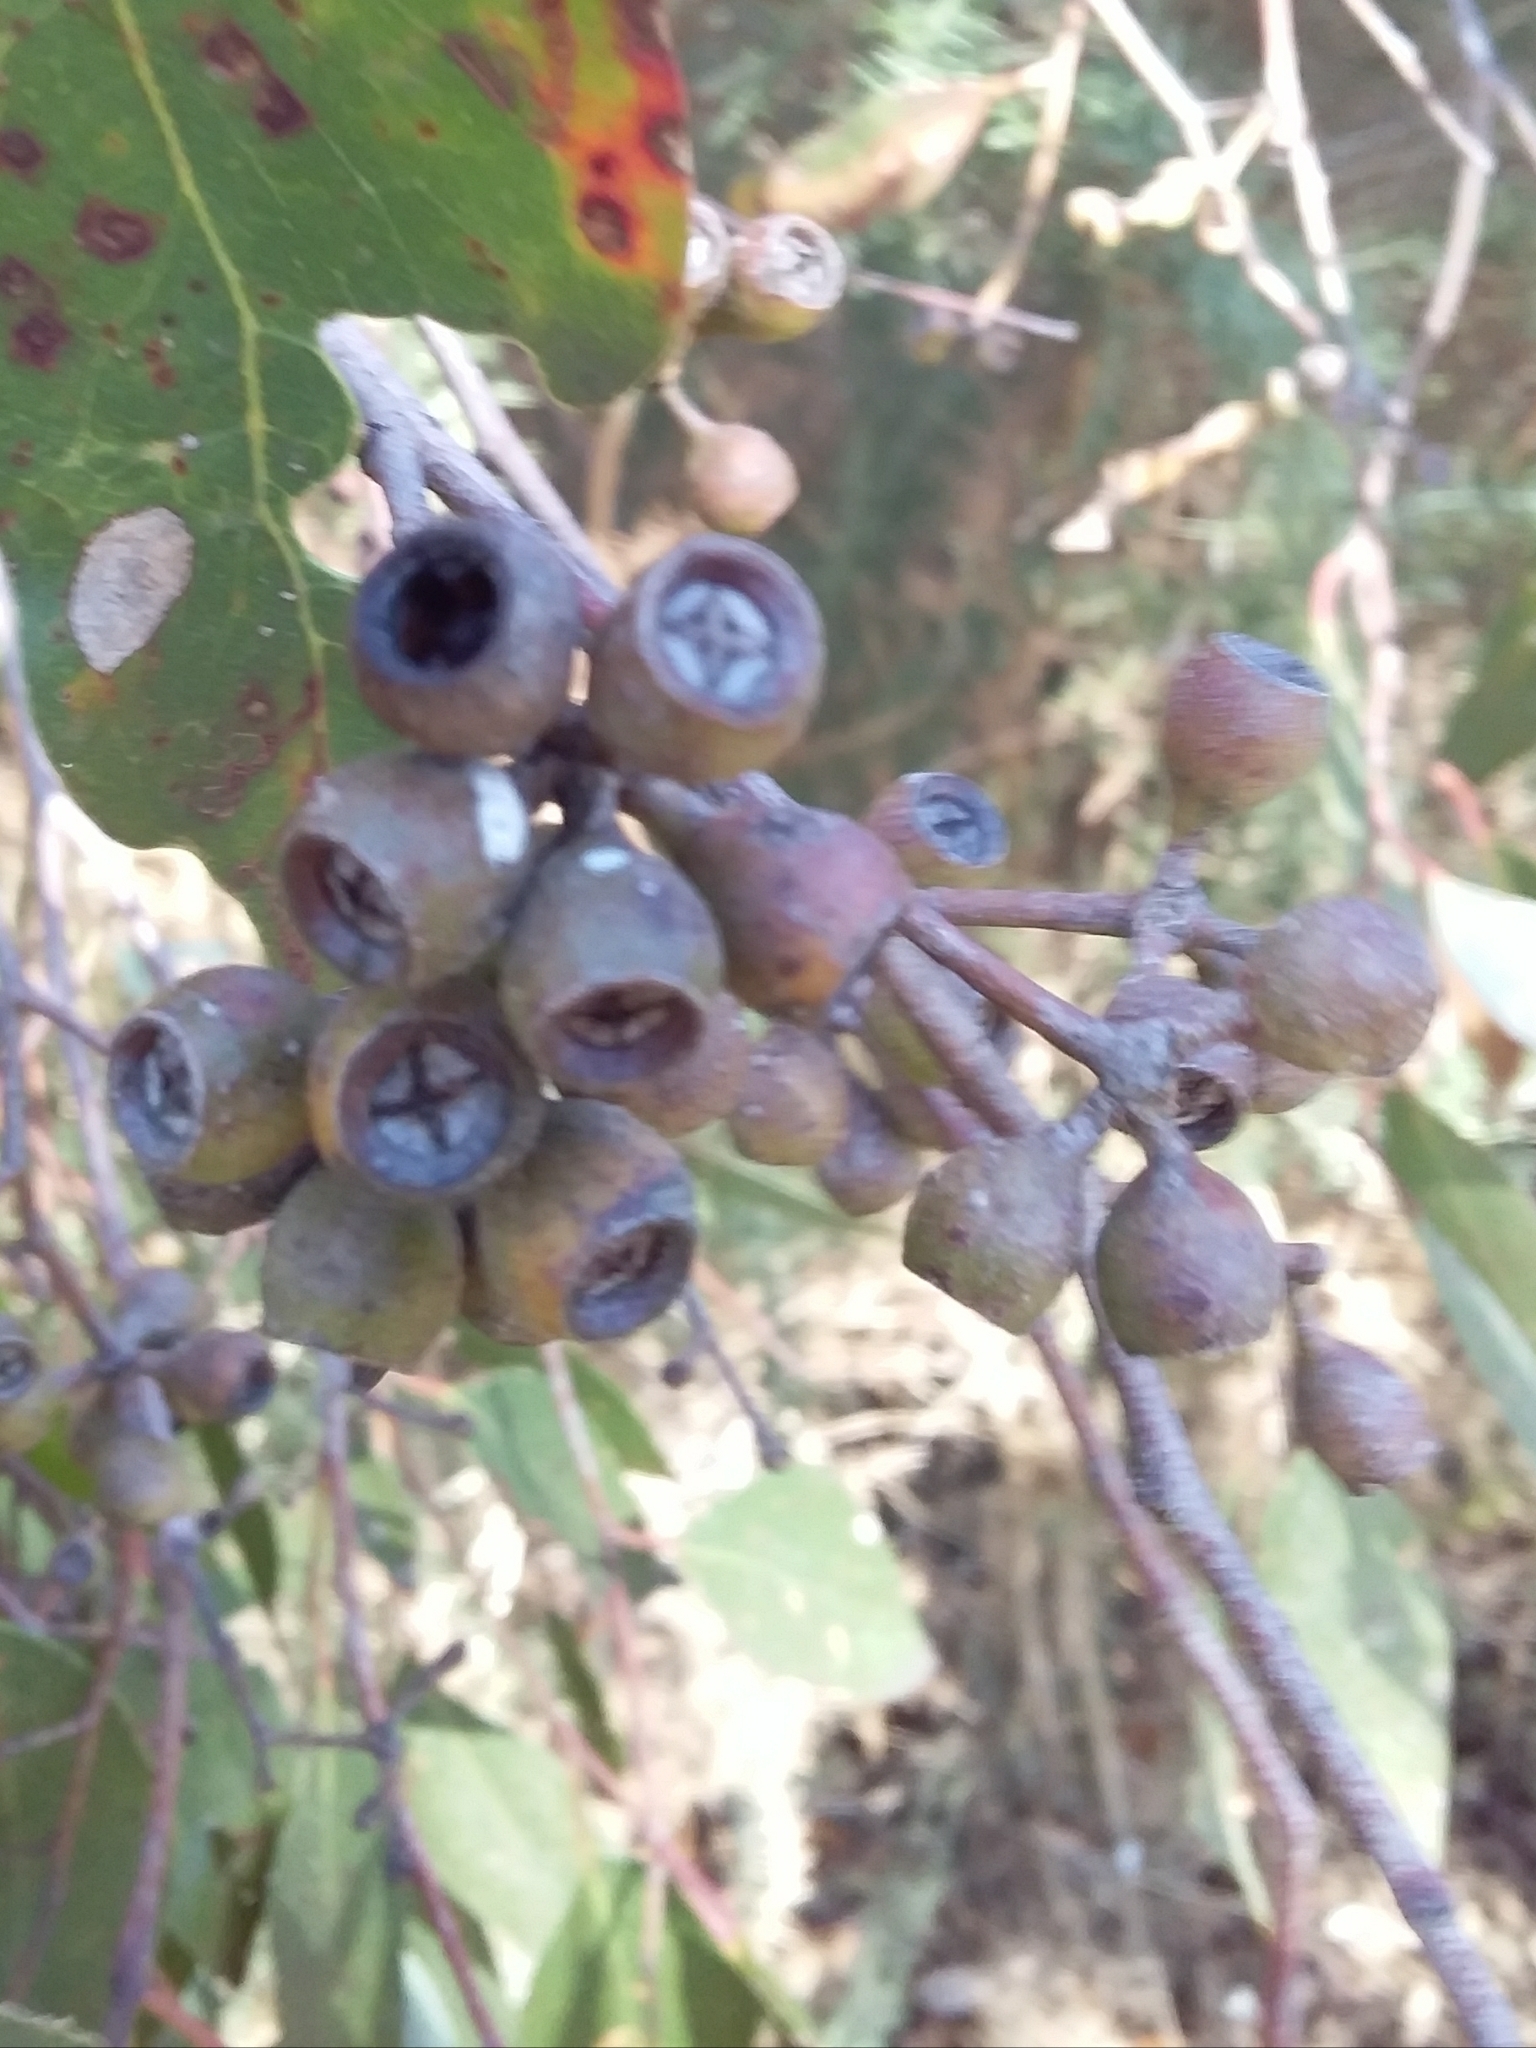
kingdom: Plantae
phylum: Tracheophyta
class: Magnoliopsida
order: Myrtales
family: Myrtaceae
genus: Eucalyptus
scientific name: Eucalyptus obliqua
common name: Messmate stringybark
